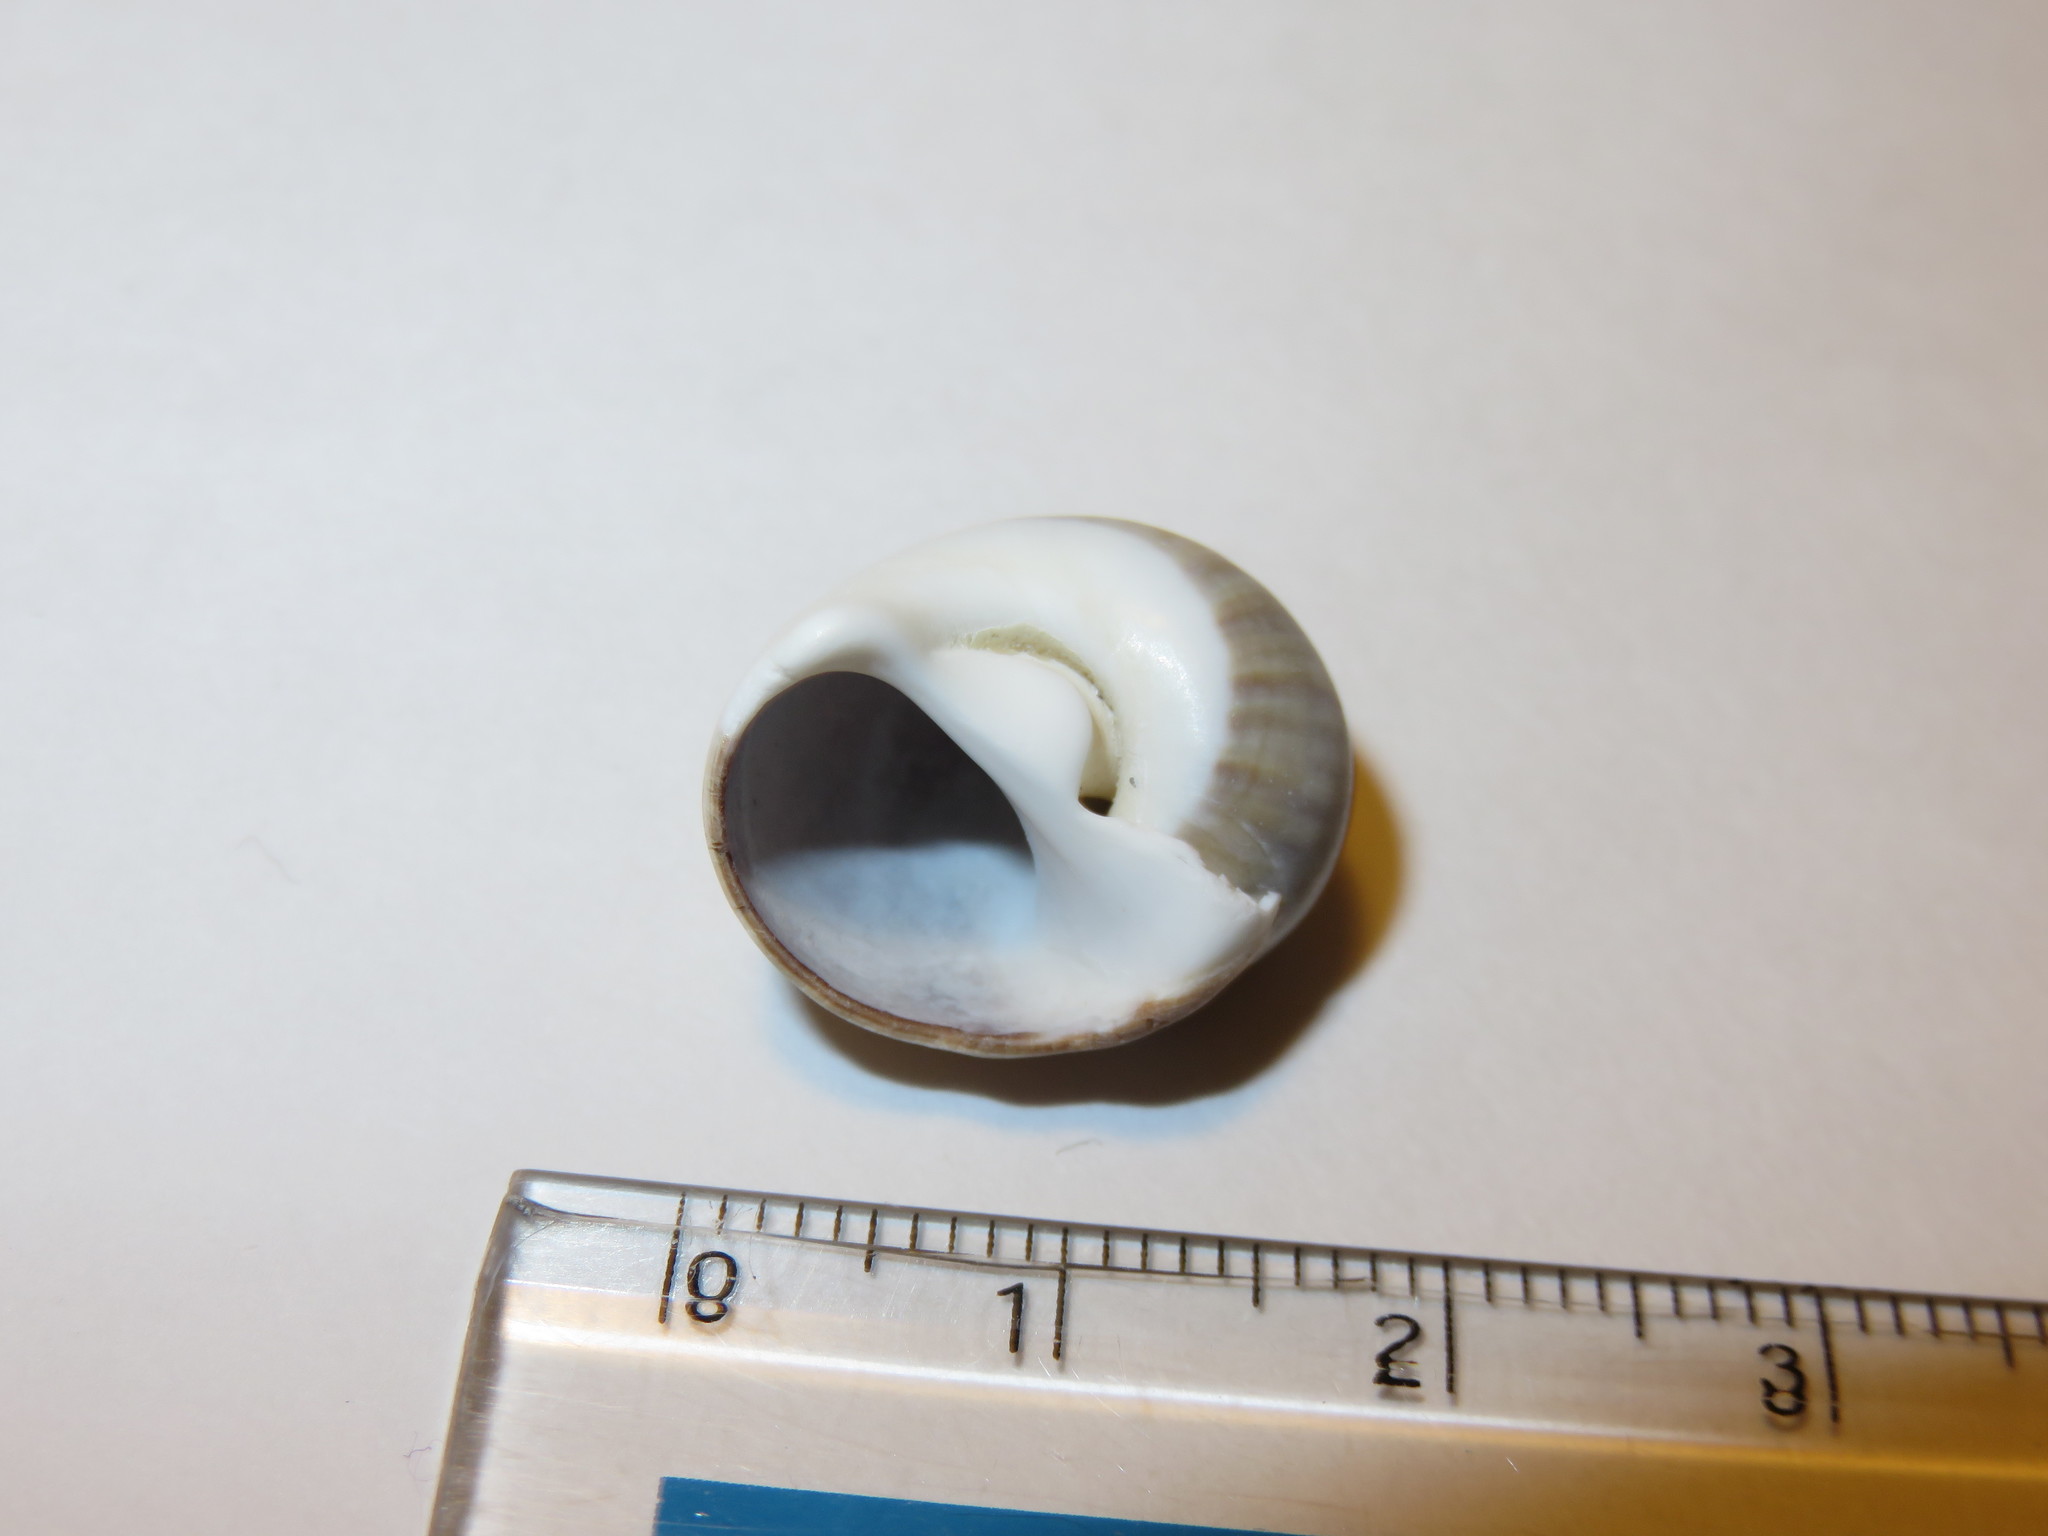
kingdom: Animalia
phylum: Mollusca
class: Gastropoda
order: Littorinimorpha
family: Naticidae
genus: Notocochlis
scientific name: Notocochlis gualteriana
